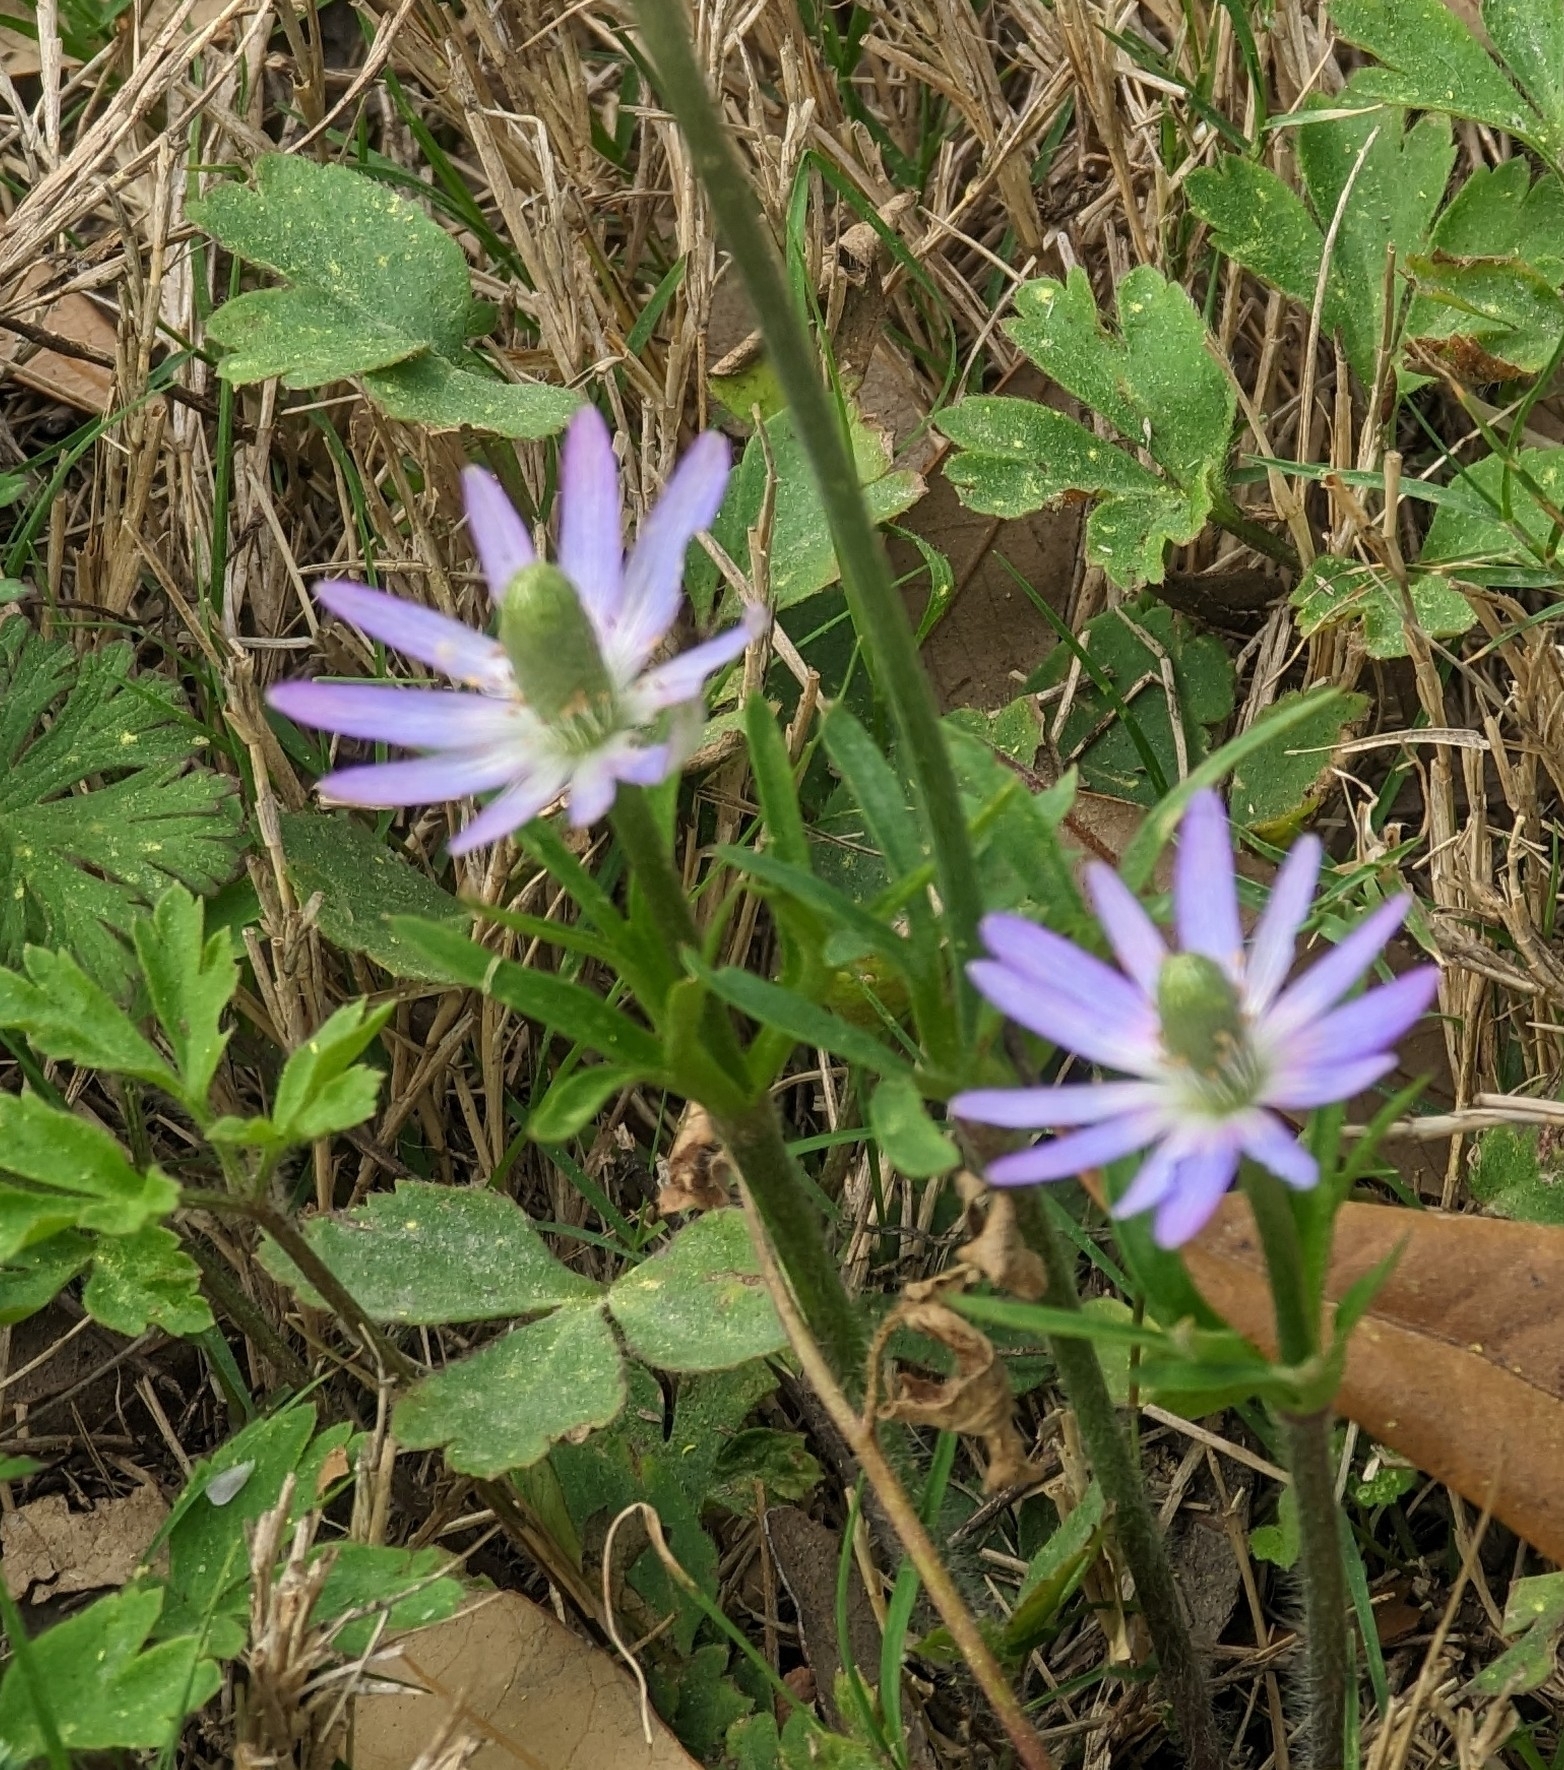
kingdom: Plantae
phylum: Tracheophyta
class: Magnoliopsida
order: Ranunculales
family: Ranunculaceae
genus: Anemone
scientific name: Anemone berlandieri
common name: Ten-petal anemone
